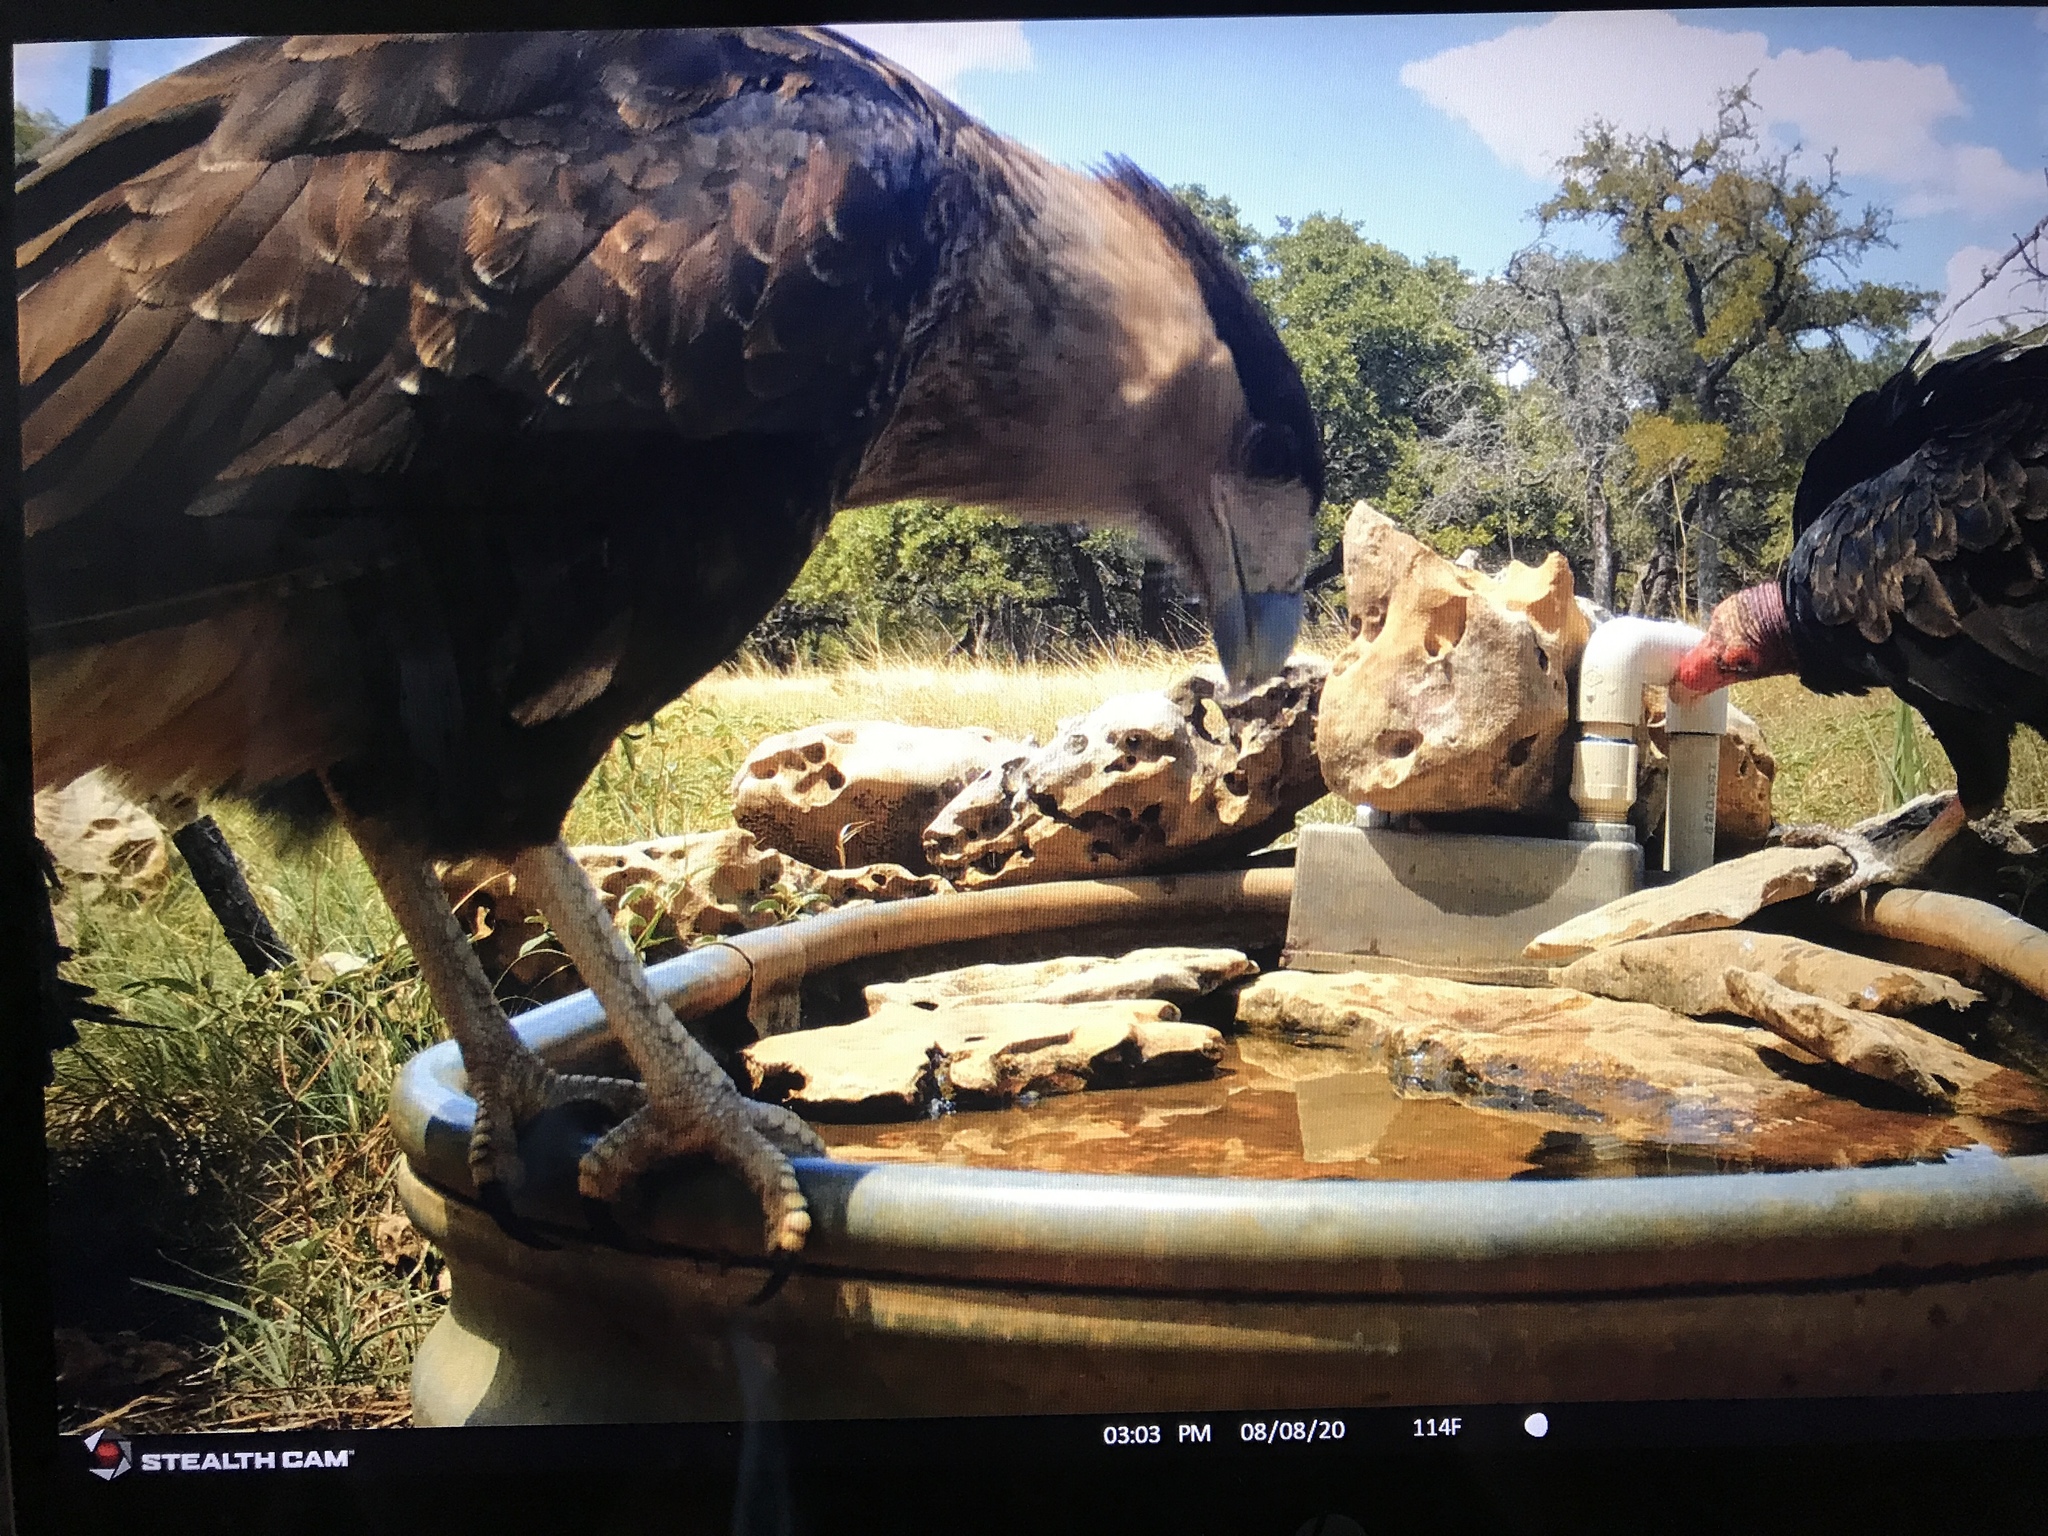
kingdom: Animalia
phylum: Chordata
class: Aves
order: Falconiformes
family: Falconidae
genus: Caracara
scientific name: Caracara plancus
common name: Southern caracara
